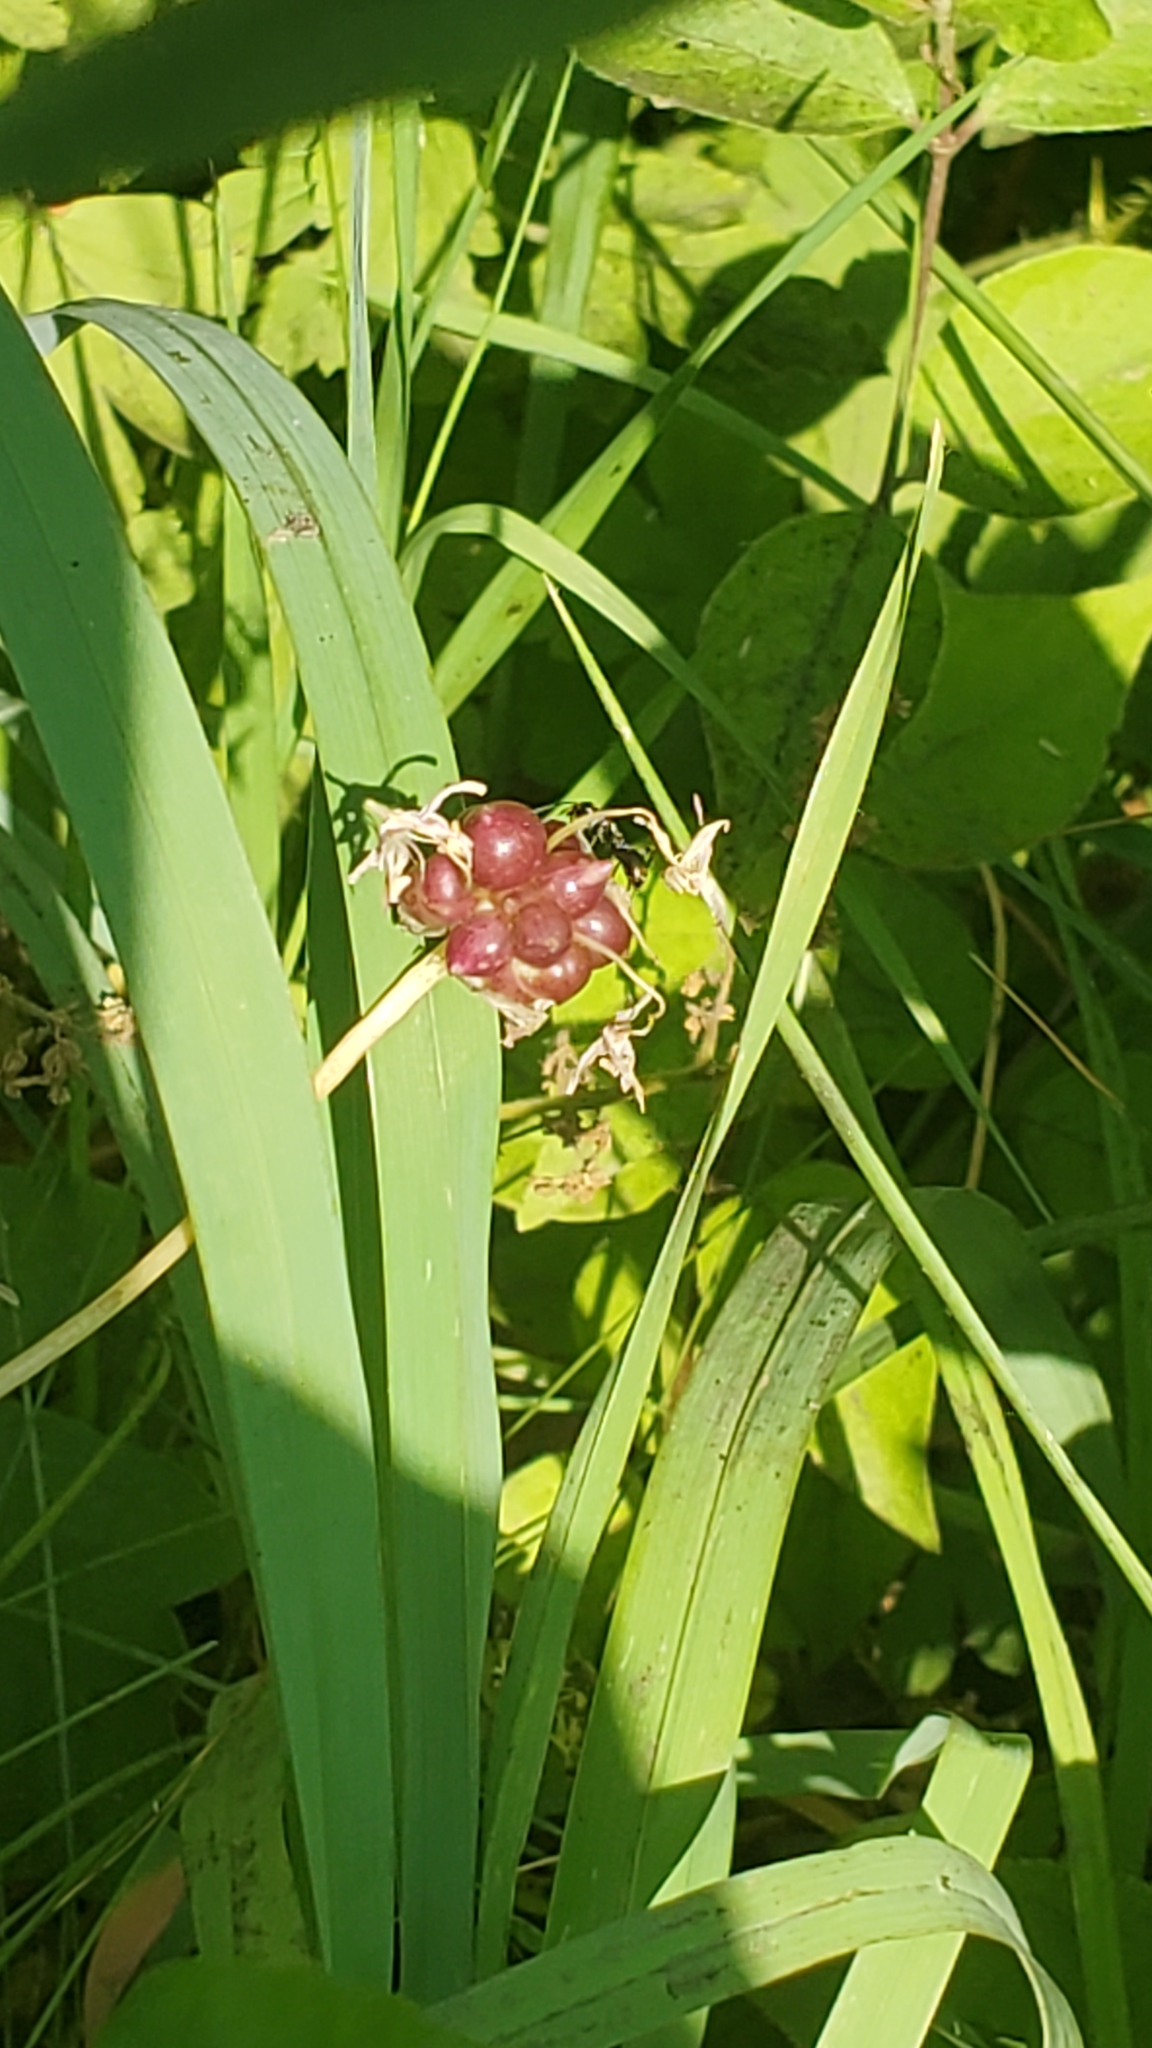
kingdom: Plantae
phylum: Tracheophyta
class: Liliopsida
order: Asparagales
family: Amaryllidaceae
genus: Allium
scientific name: Allium canadense
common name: Meadow garlic
